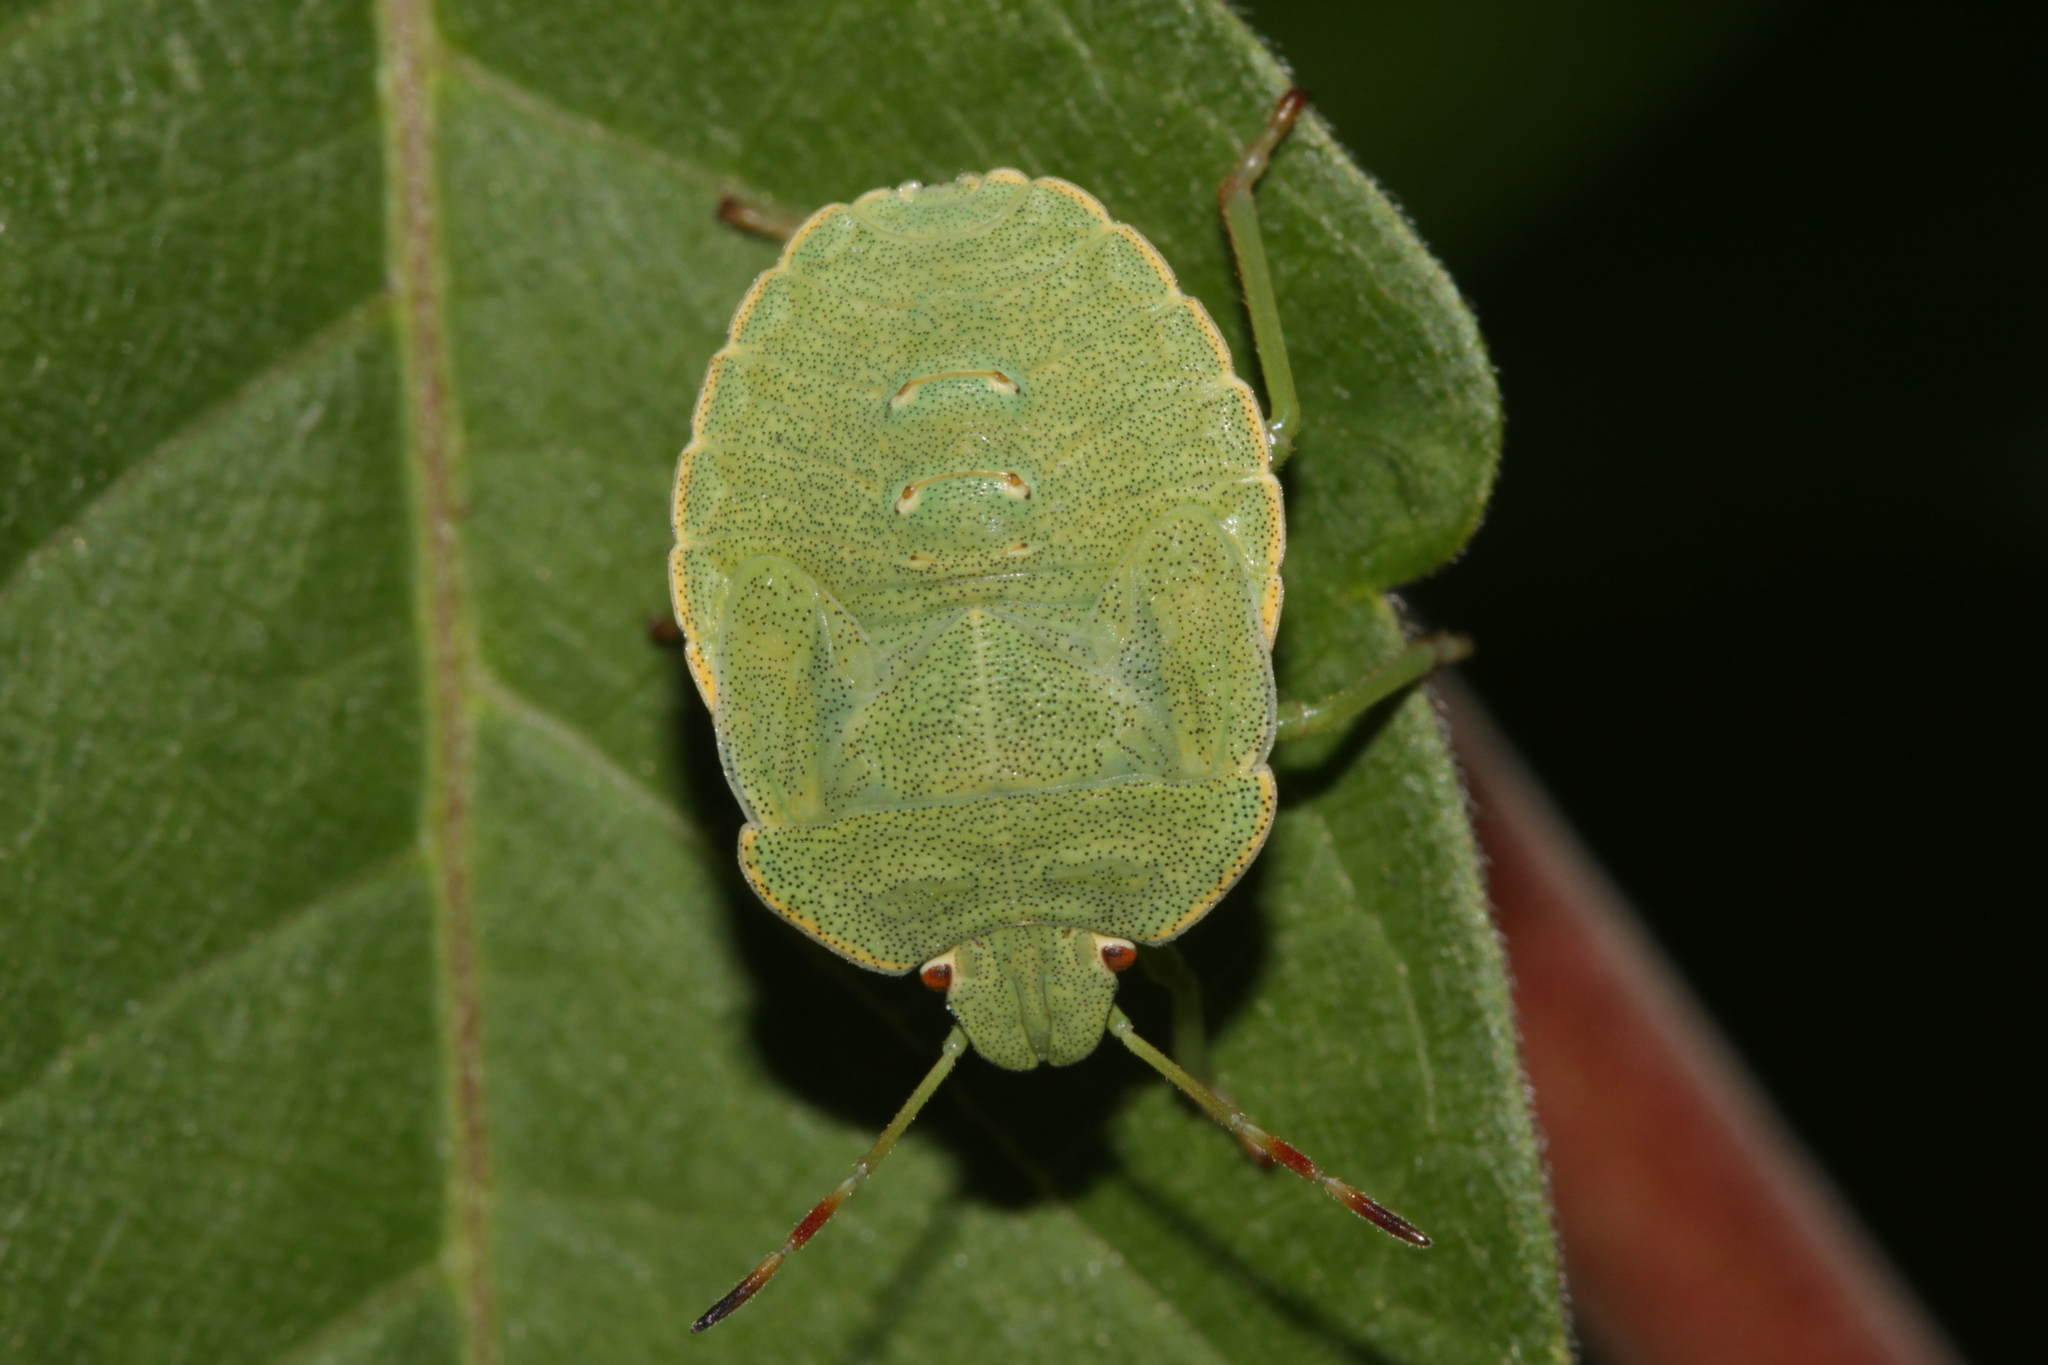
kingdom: Animalia
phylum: Arthropoda
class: Insecta
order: Hemiptera
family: Pentatomidae
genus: Palomena
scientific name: Palomena prasina
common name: Green shieldbug
